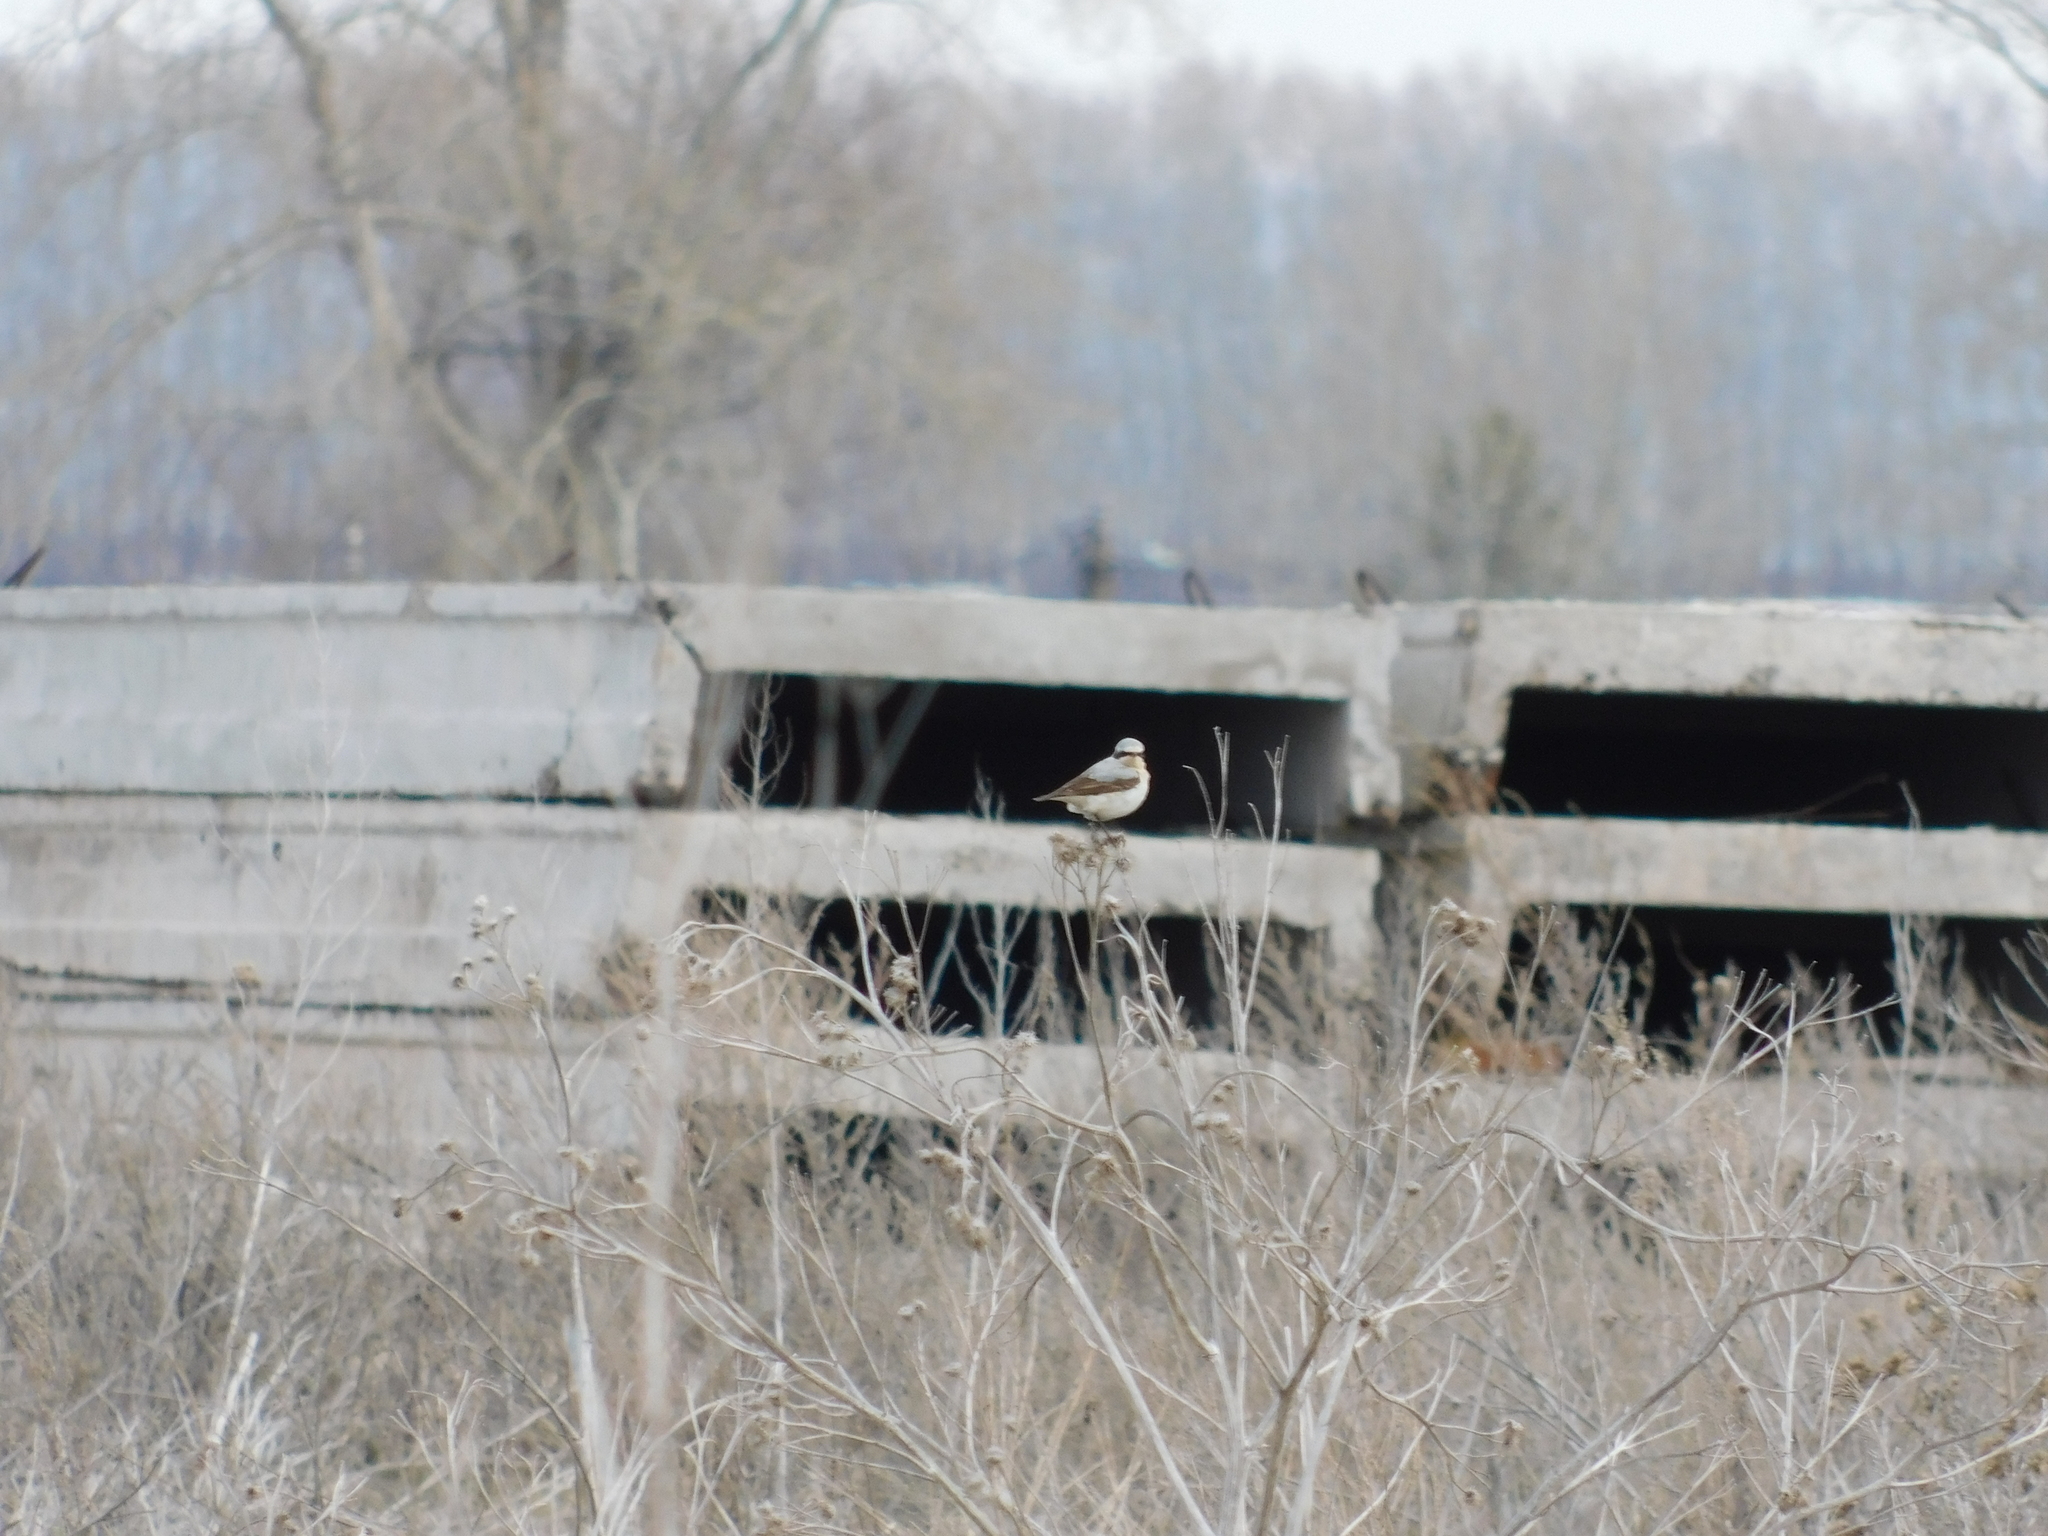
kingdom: Animalia
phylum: Chordata
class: Aves
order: Passeriformes
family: Muscicapidae
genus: Oenanthe
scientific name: Oenanthe oenanthe
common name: Northern wheatear
